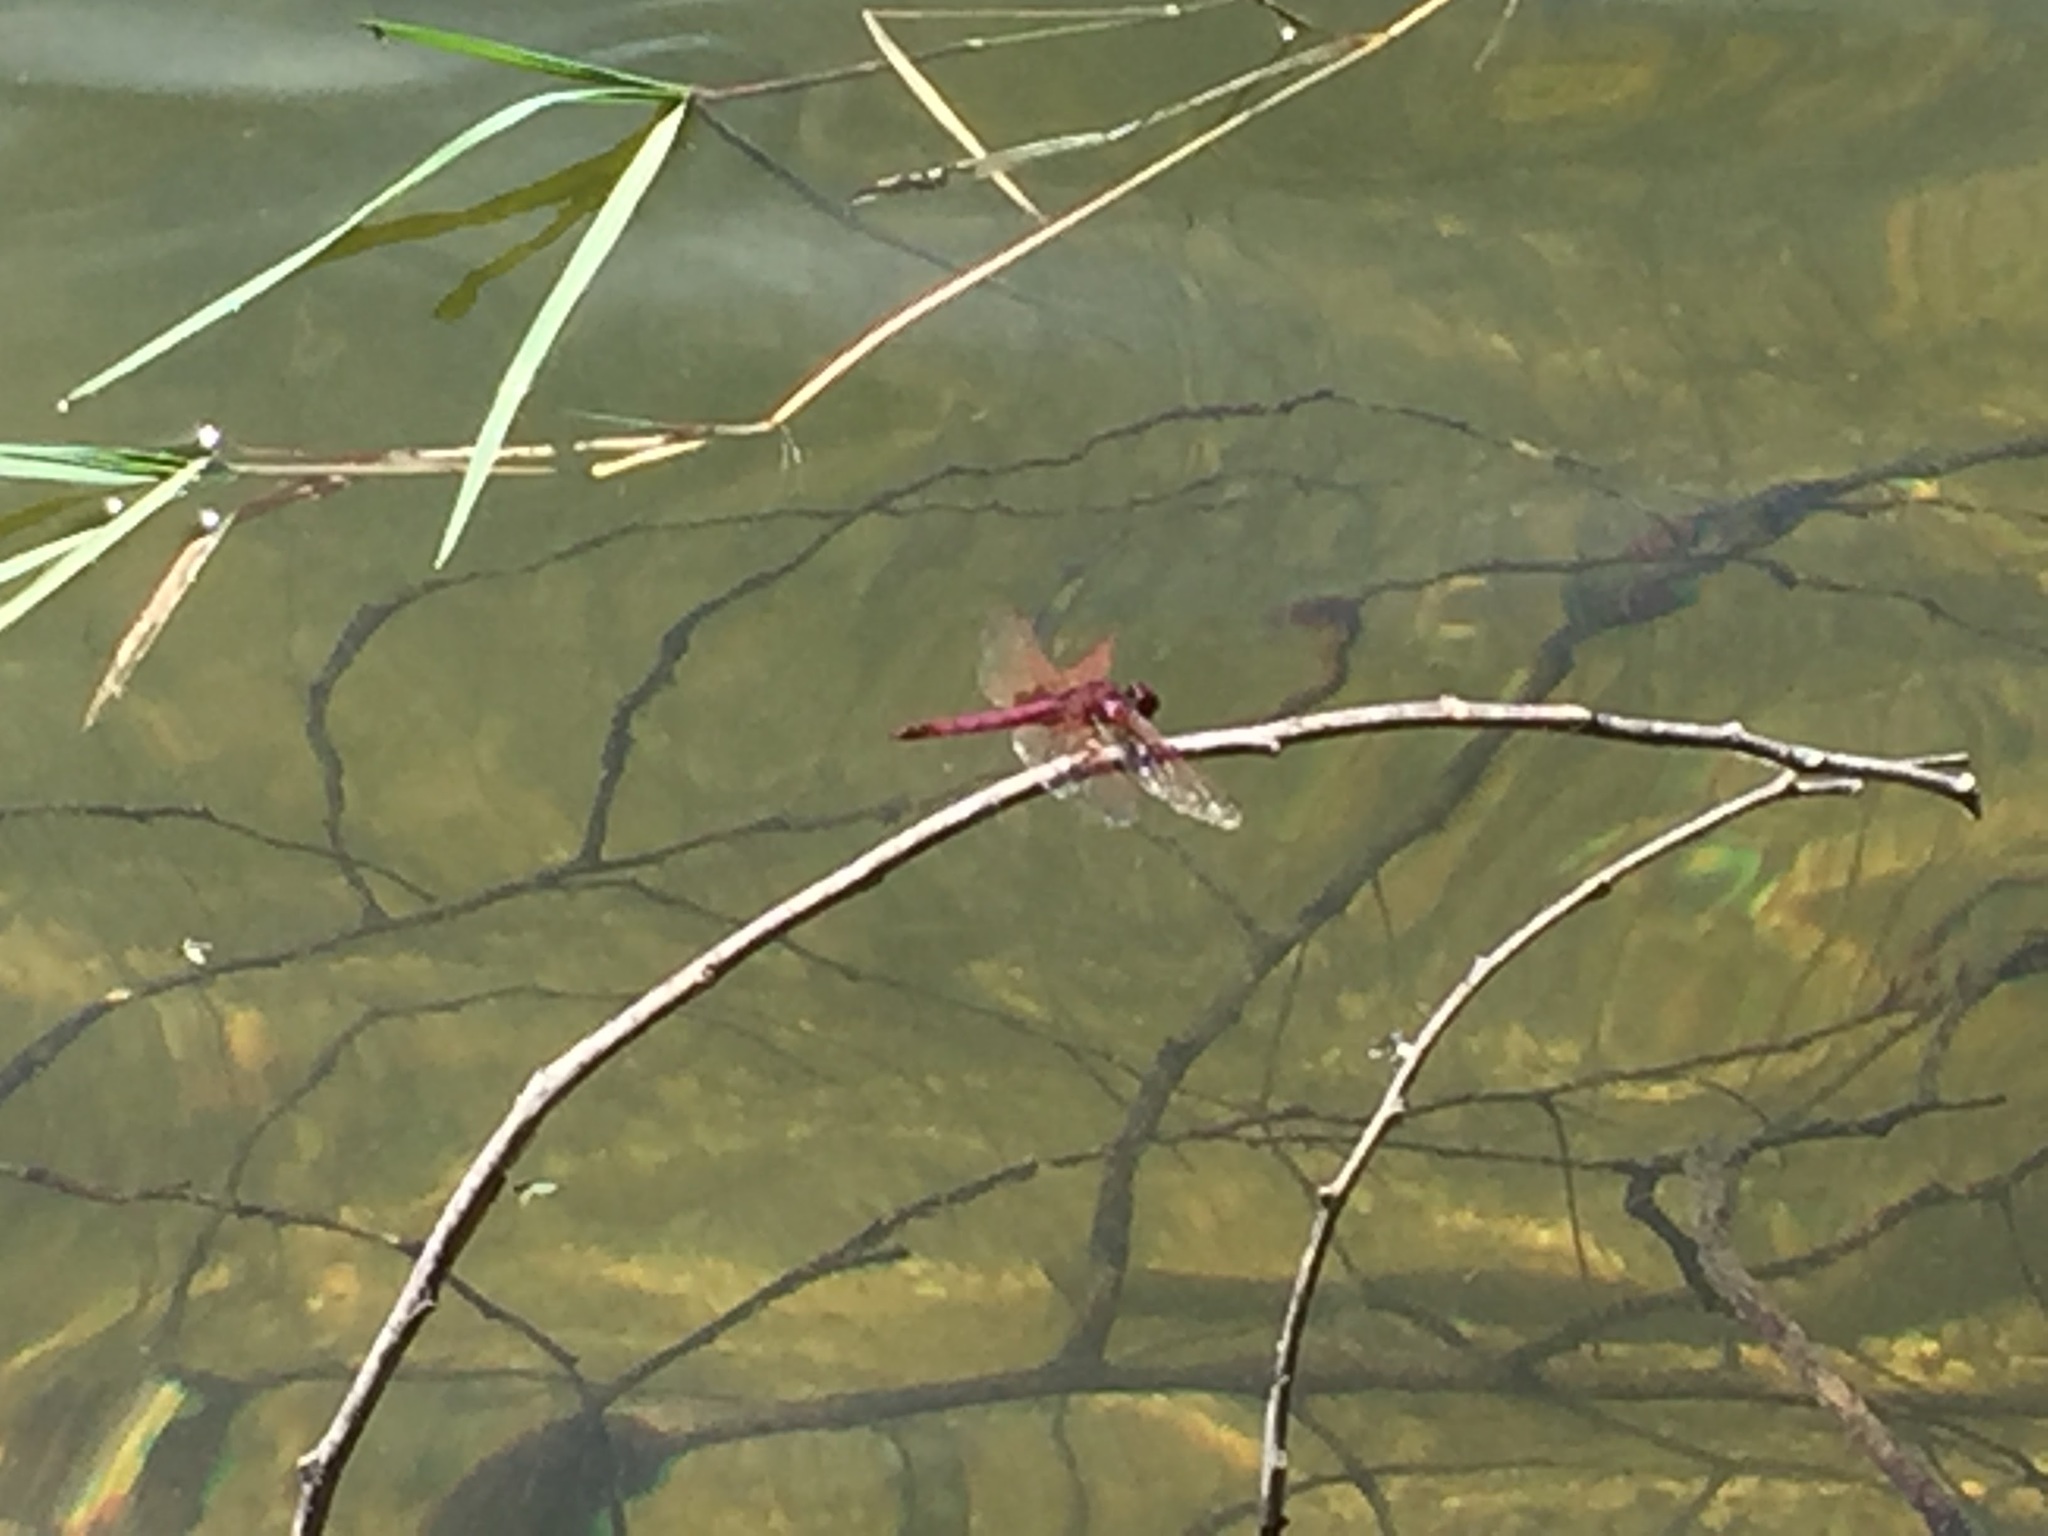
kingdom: Animalia
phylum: Arthropoda
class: Insecta
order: Odonata
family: Libellulidae
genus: Trithemis
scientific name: Trithemis annulata
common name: Violet dropwing
